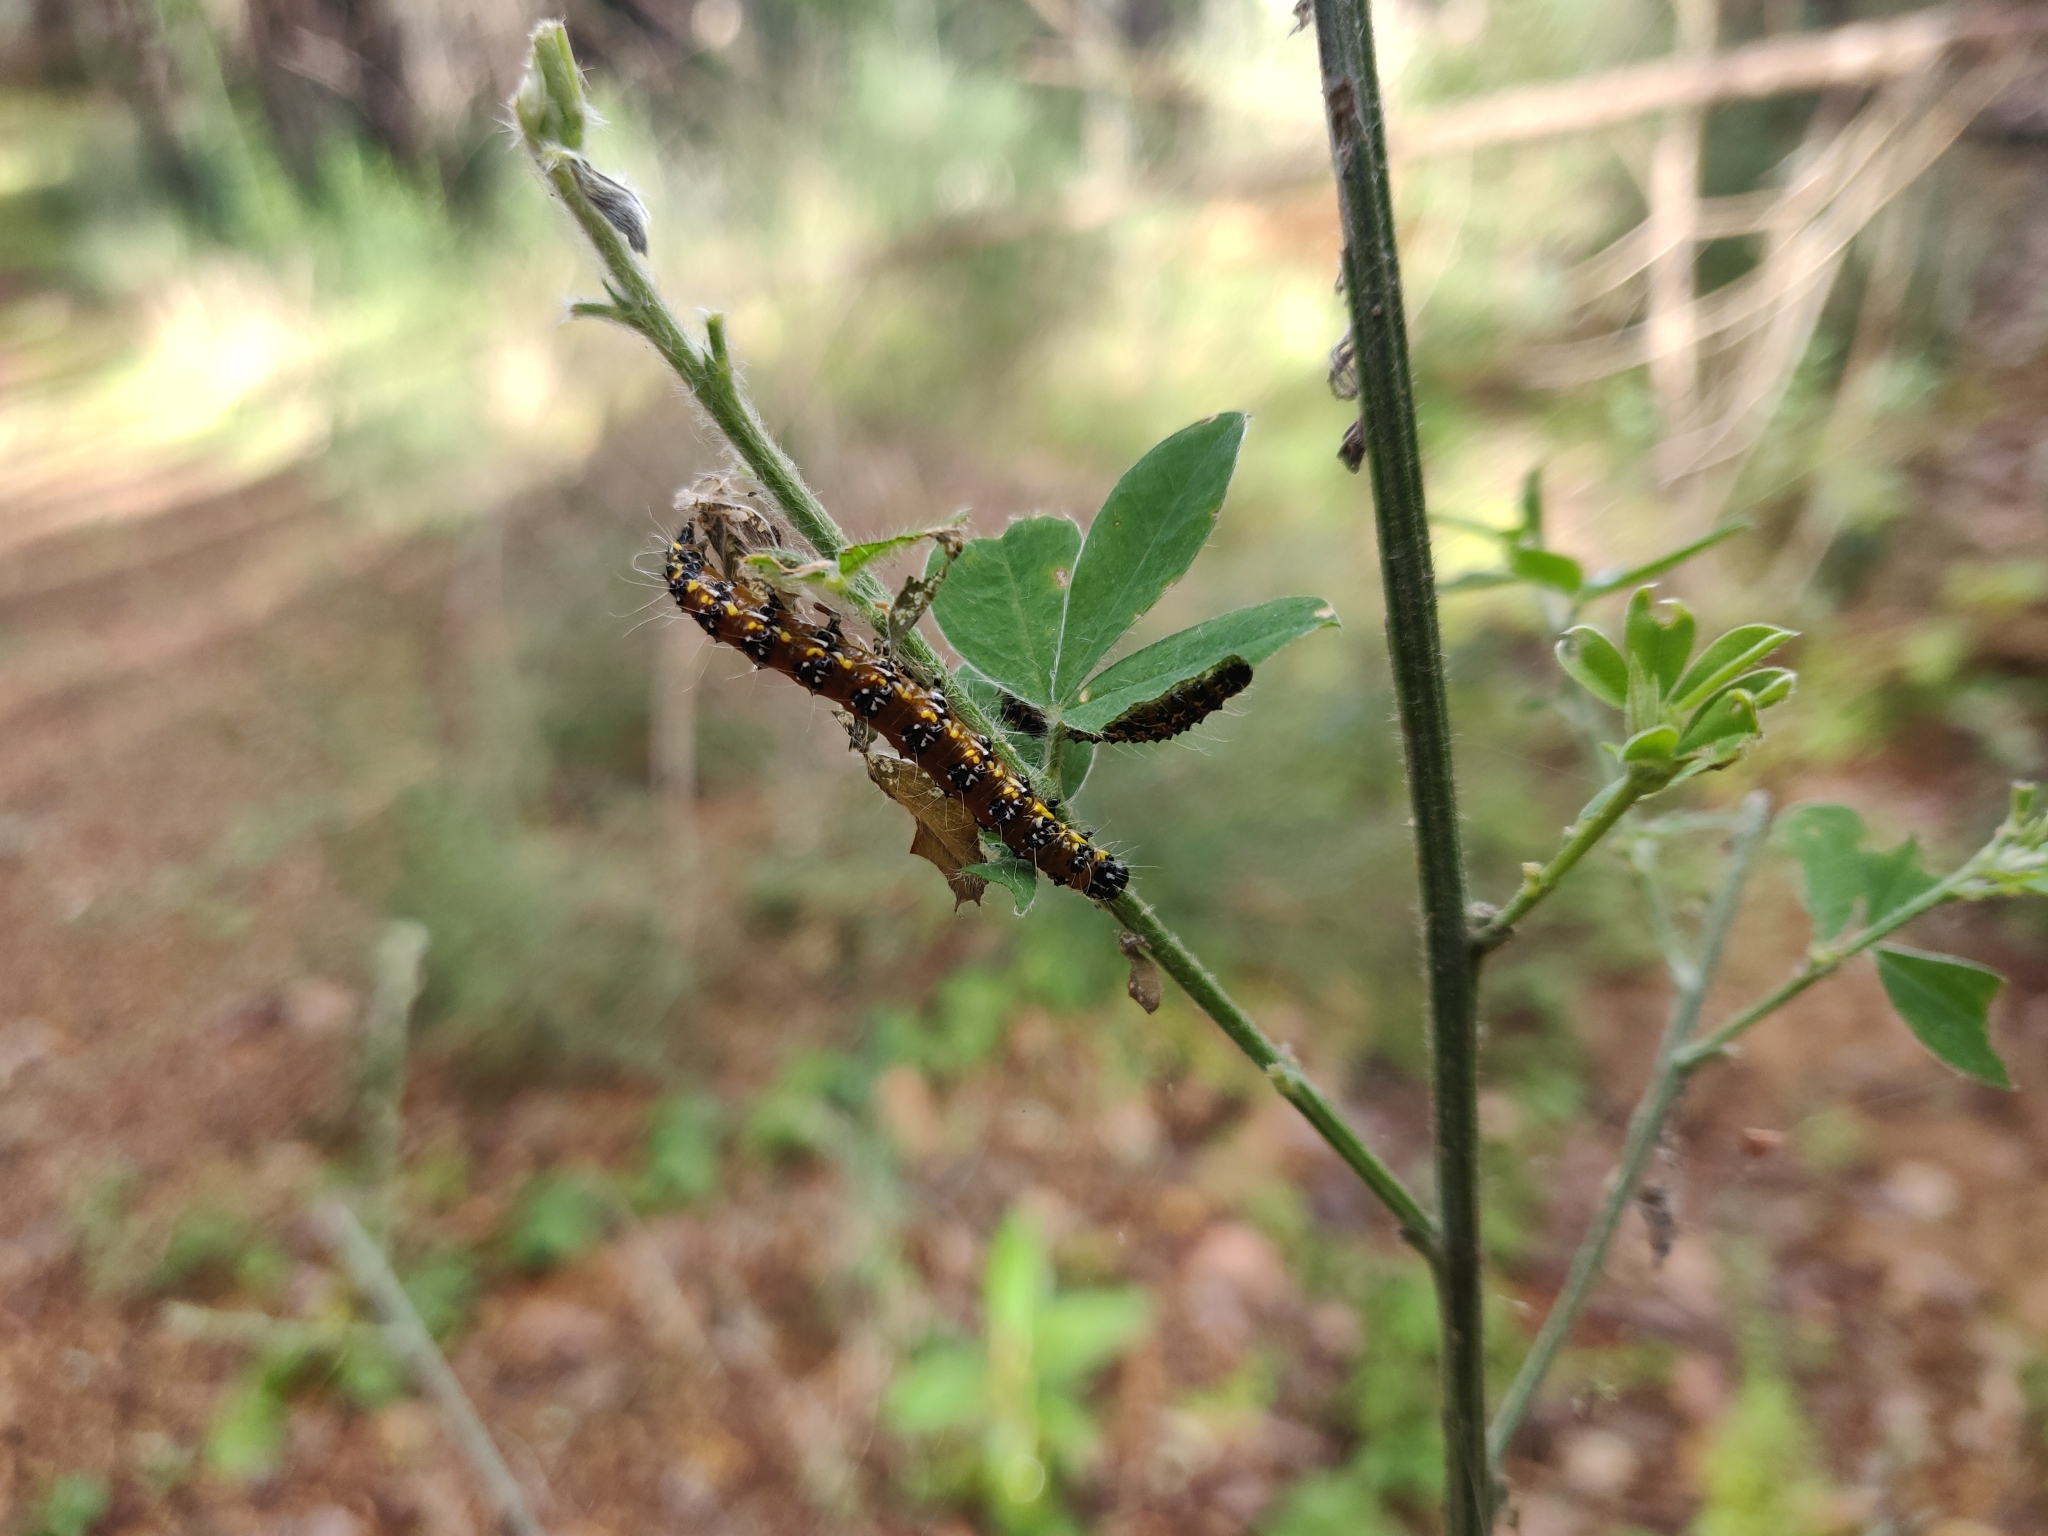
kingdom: Animalia
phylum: Arthropoda
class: Insecta
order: Lepidoptera
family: Crambidae
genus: Uresiphita
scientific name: Uresiphita reversalis
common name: Genista broom moth
